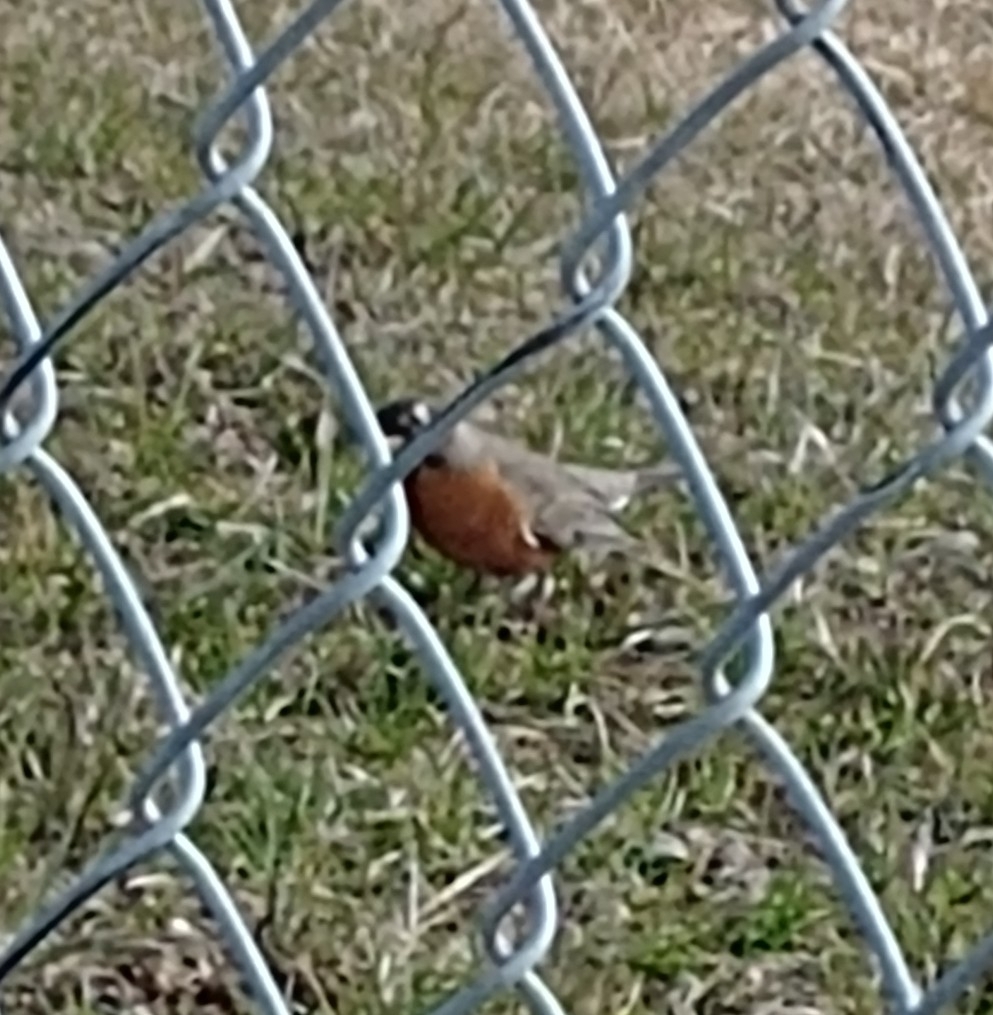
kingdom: Animalia
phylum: Chordata
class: Aves
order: Passeriformes
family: Turdidae
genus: Turdus
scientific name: Turdus migratorius
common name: American robin
